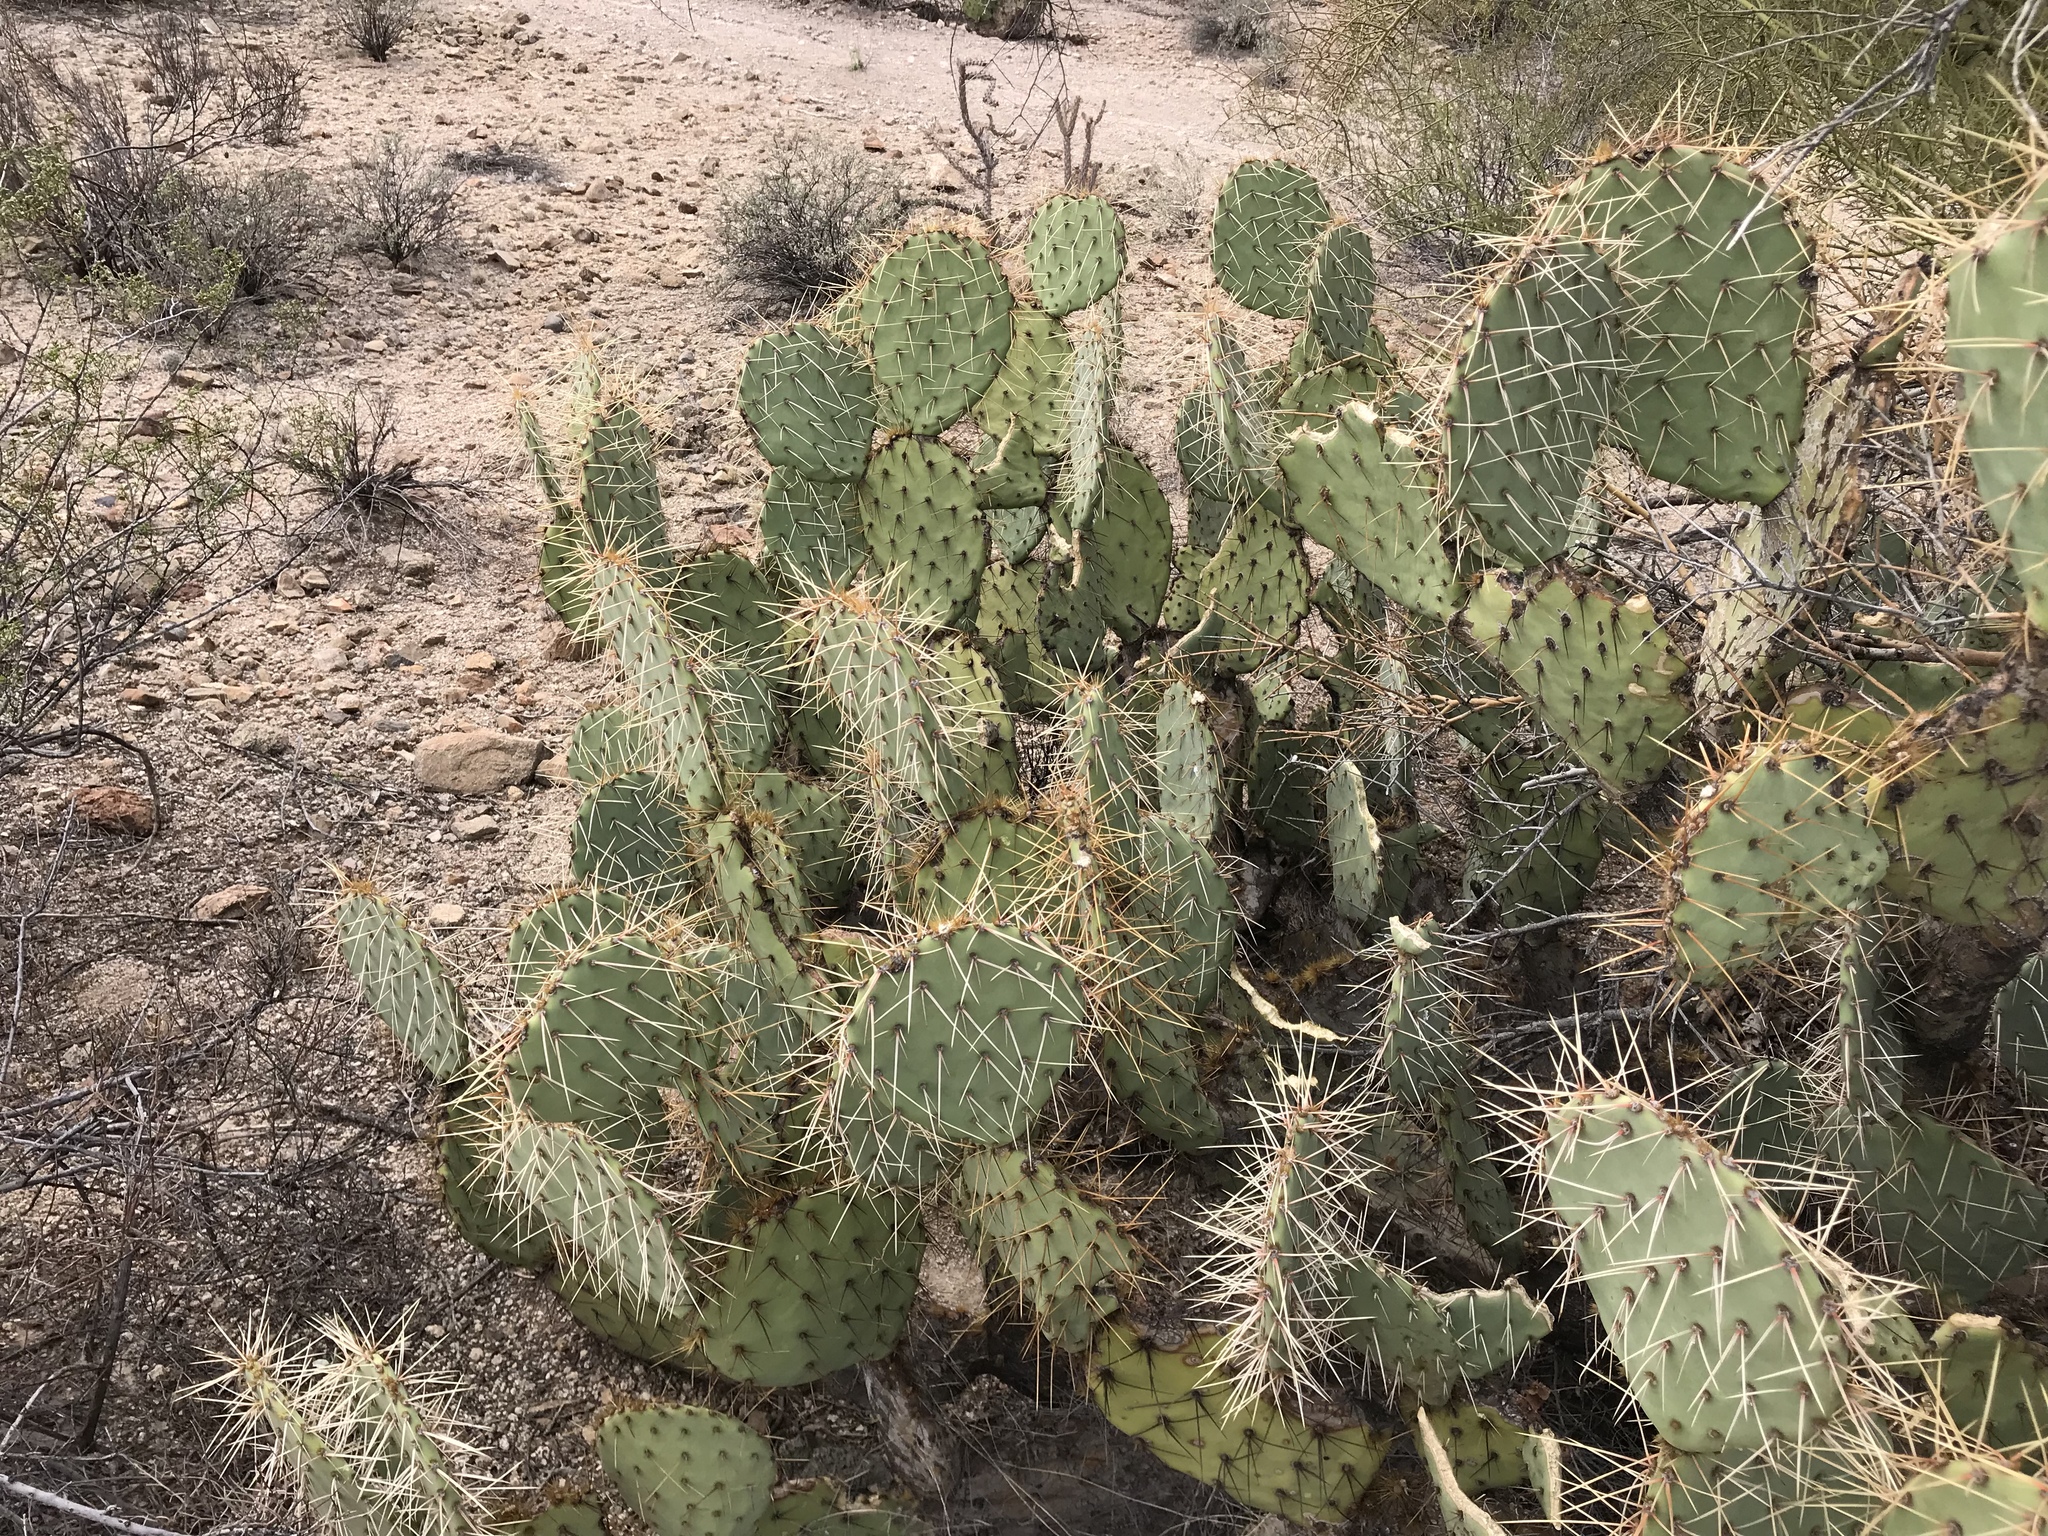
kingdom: Plantae
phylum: Tracheophyta
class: Magnoliopsida
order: Caryophyllales
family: Cactaceae
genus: Opuntia
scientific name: Opuntia phaeacantha
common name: New mexico prickly-pear
